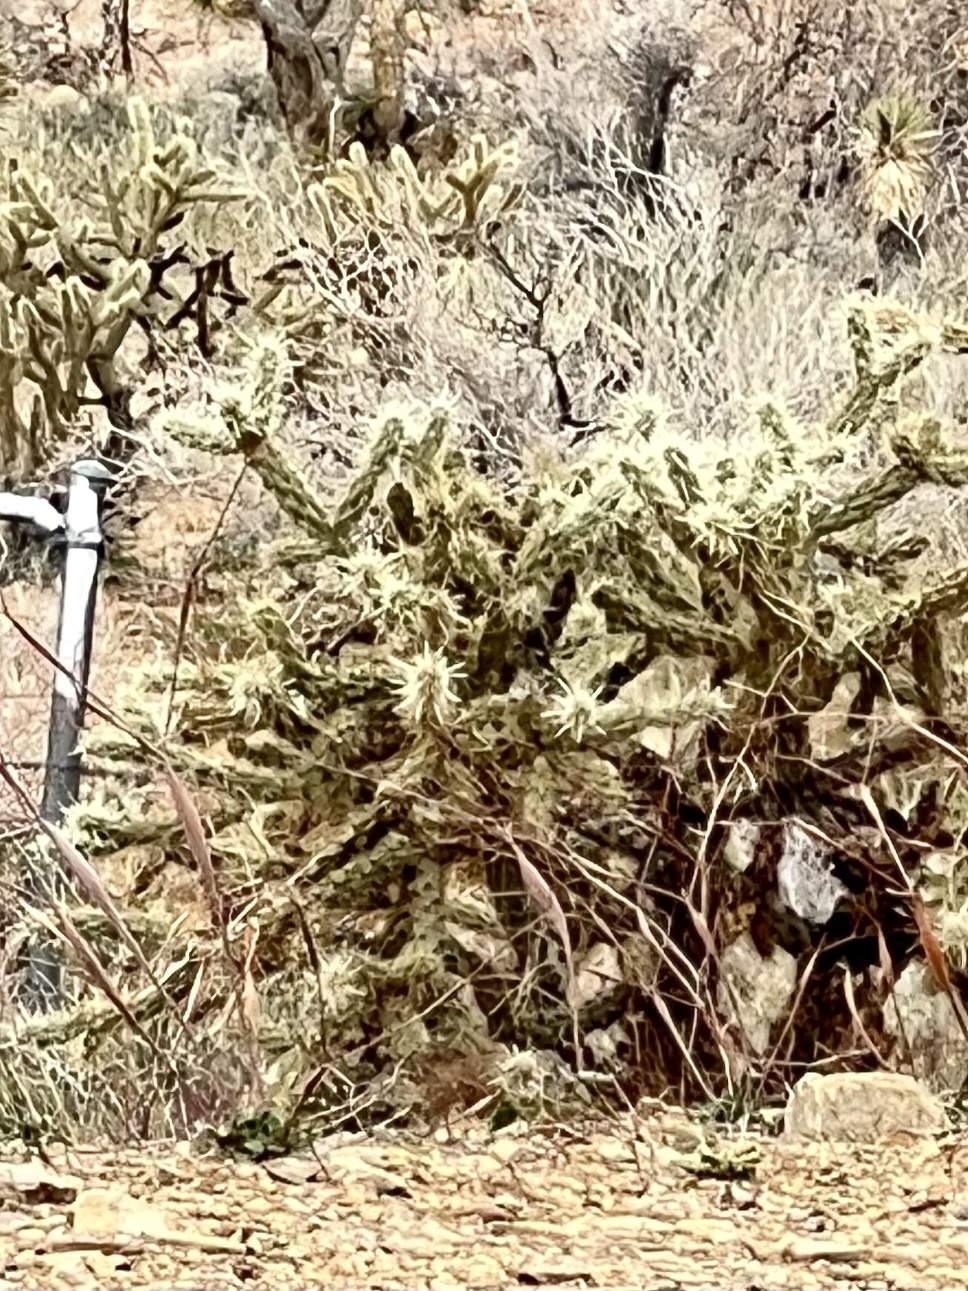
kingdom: Plantae
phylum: Tracheophyta
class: Magnoliopsida
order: Caryophyllales
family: Cactaceae
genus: Cylindropuntia
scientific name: Cylindropuntia acanthocarpa
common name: Buckhorn cholla
